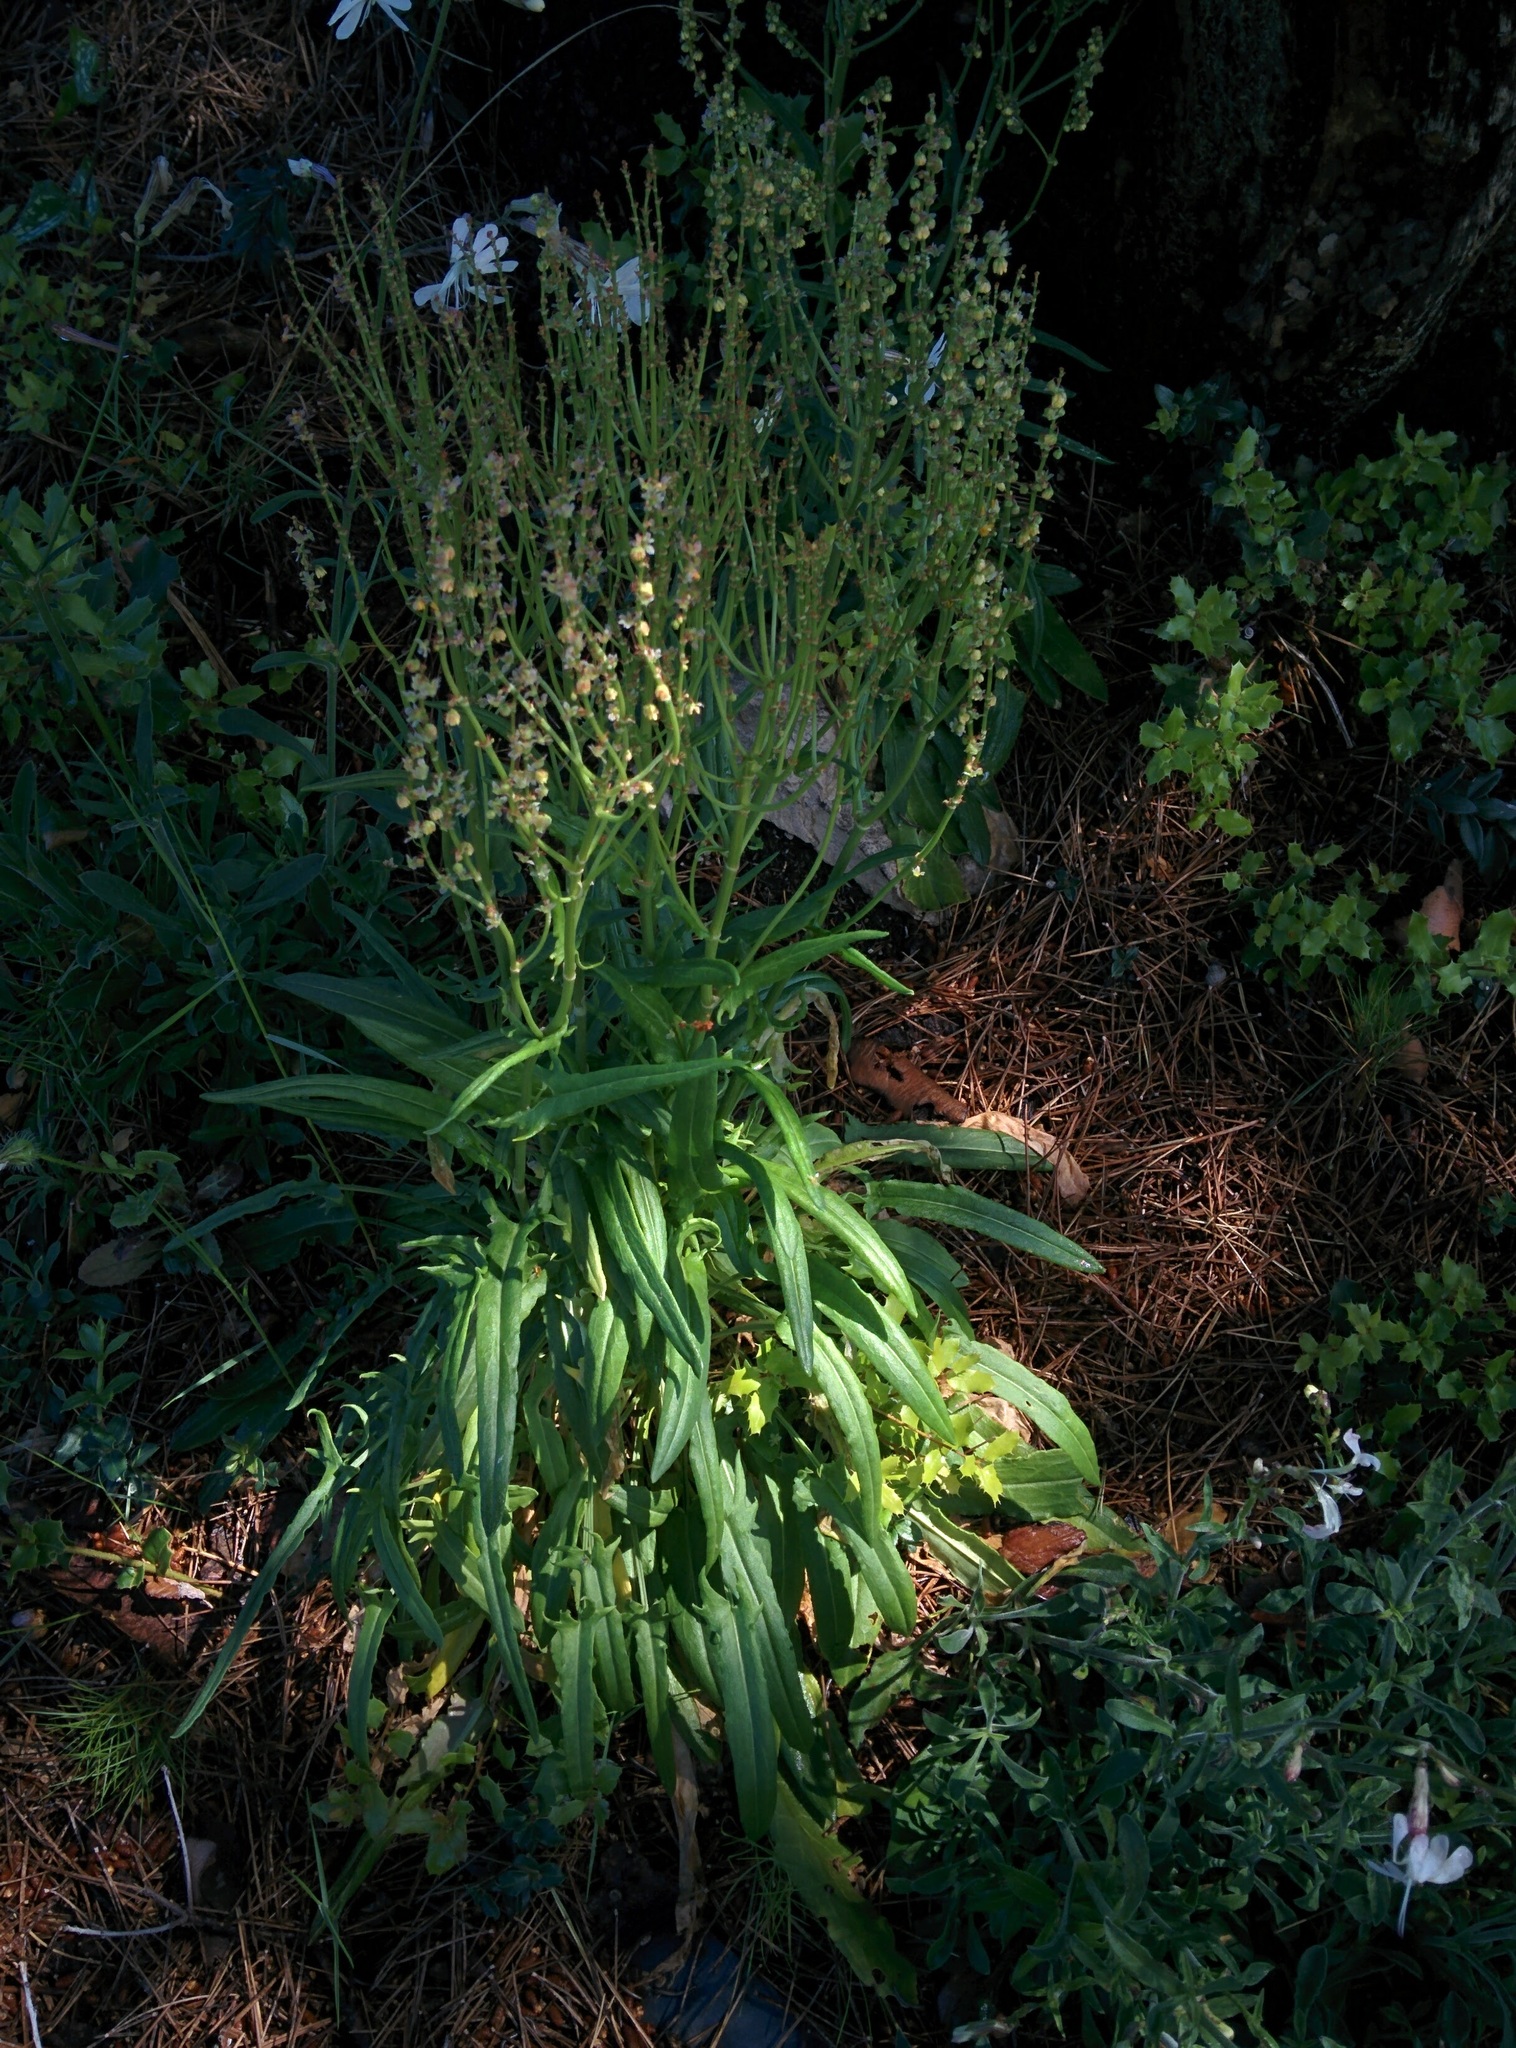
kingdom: Plantae
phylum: Tracheophyta
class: Magnoliopsida
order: Caryophyllales
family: Polygonaceae
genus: Rumex
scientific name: Rumex intermedius
